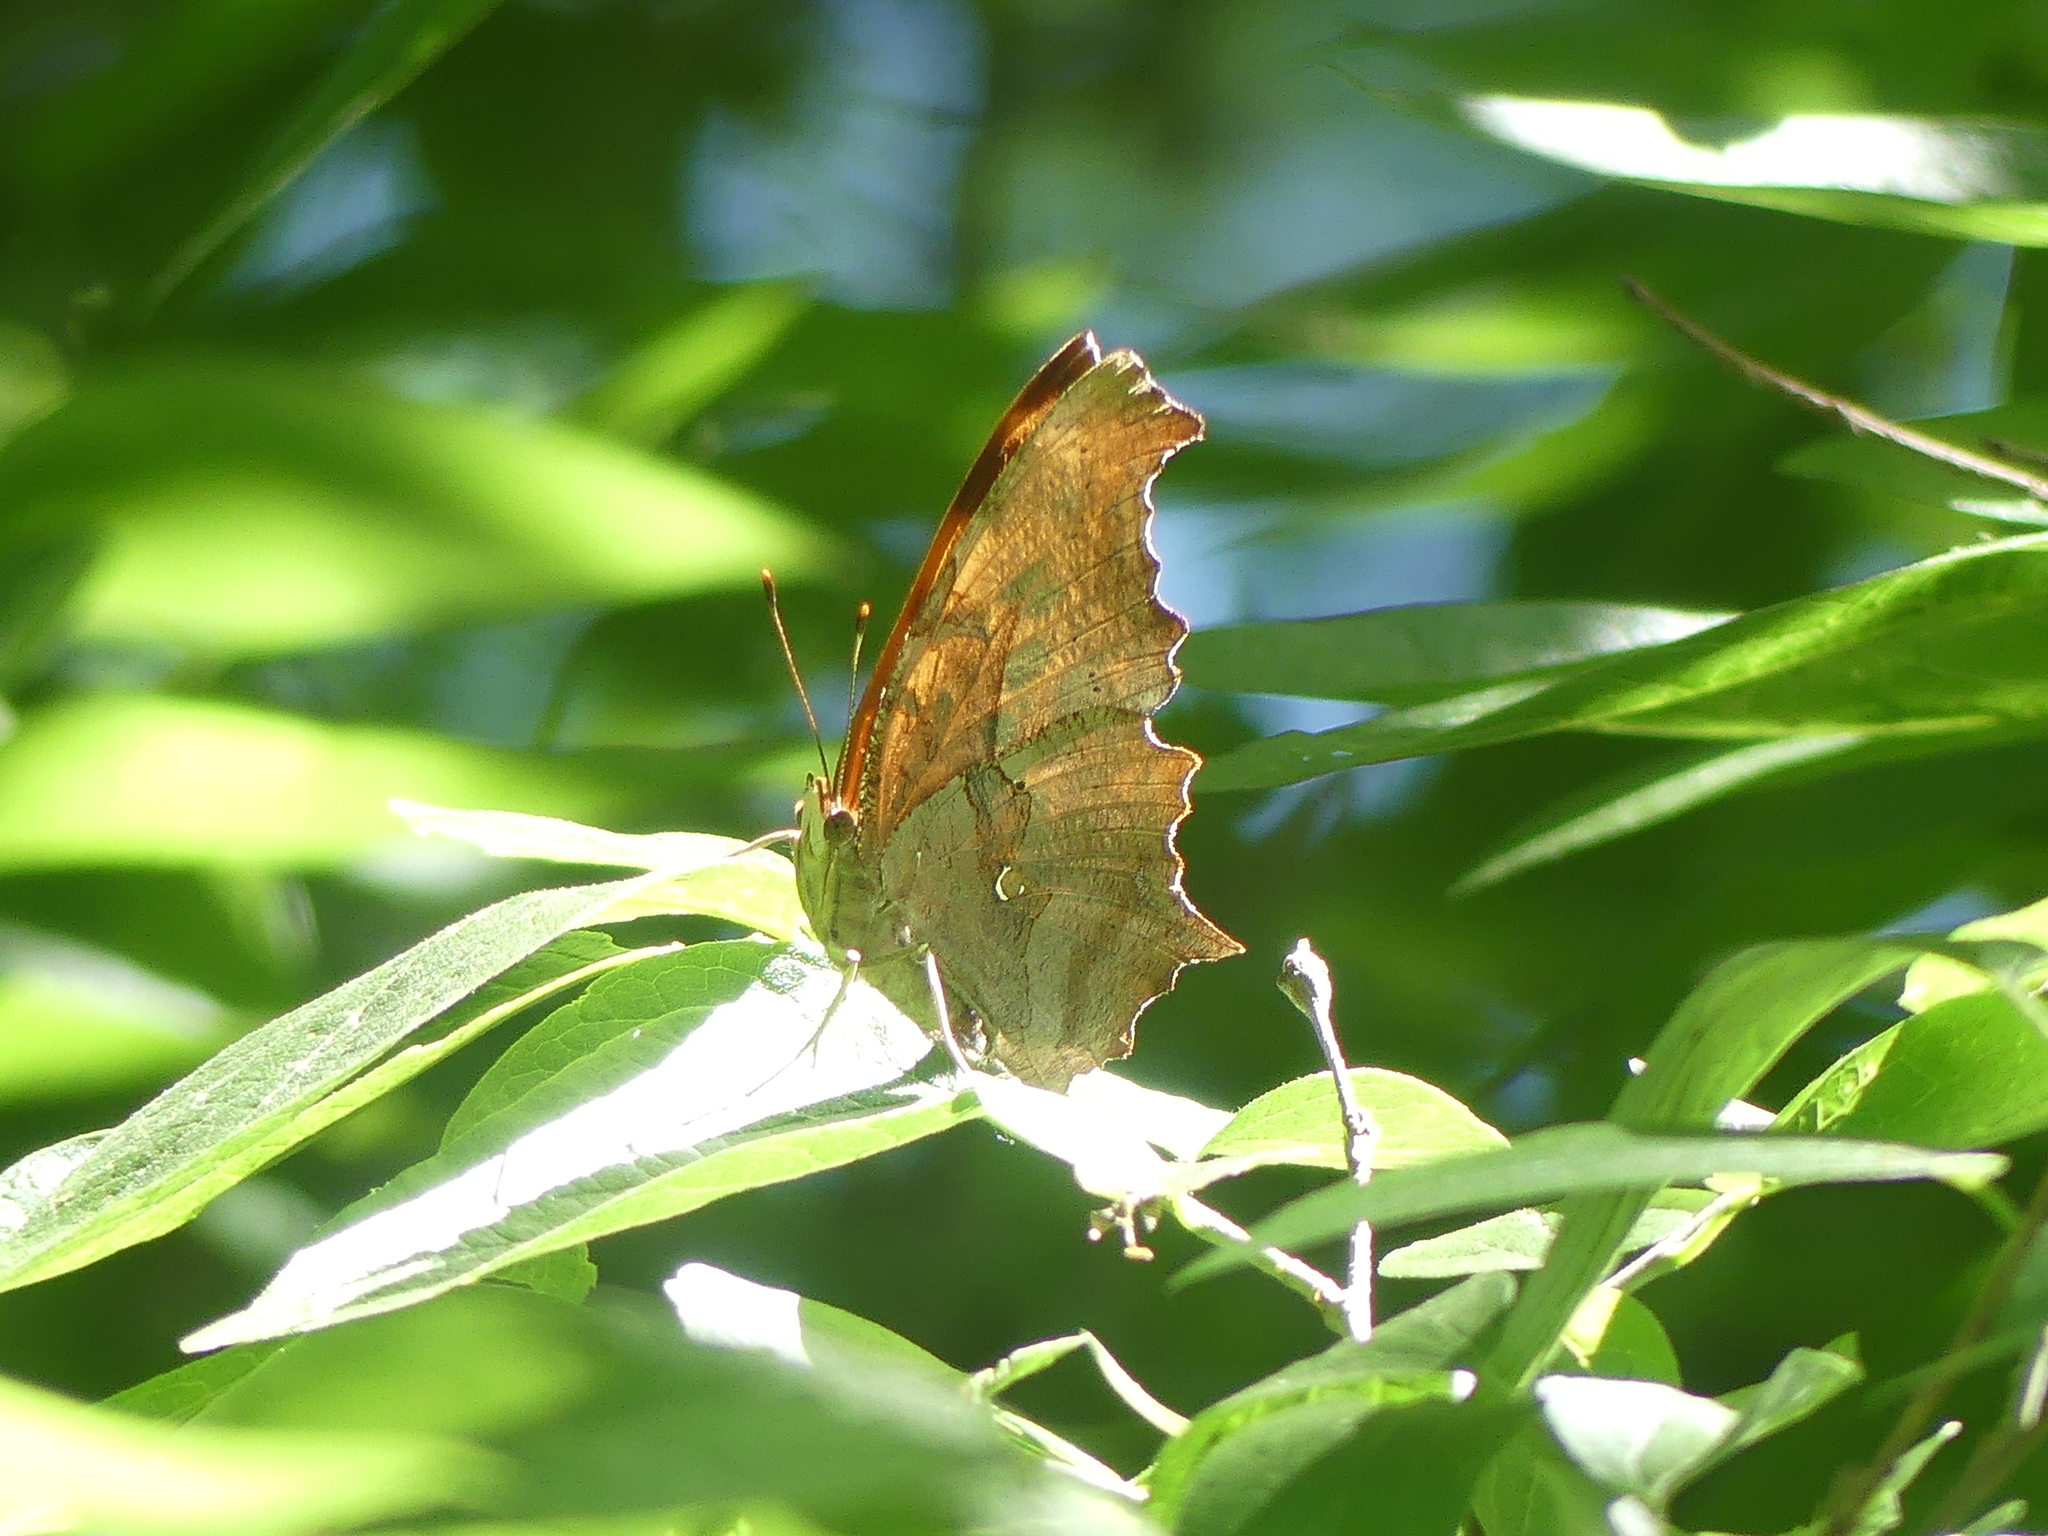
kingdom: Animalia
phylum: Arthropoda
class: Insecta
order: Lepidoptera
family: Nymphalidae
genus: Polygonia
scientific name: Polygonia interrogationis
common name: Question mark
